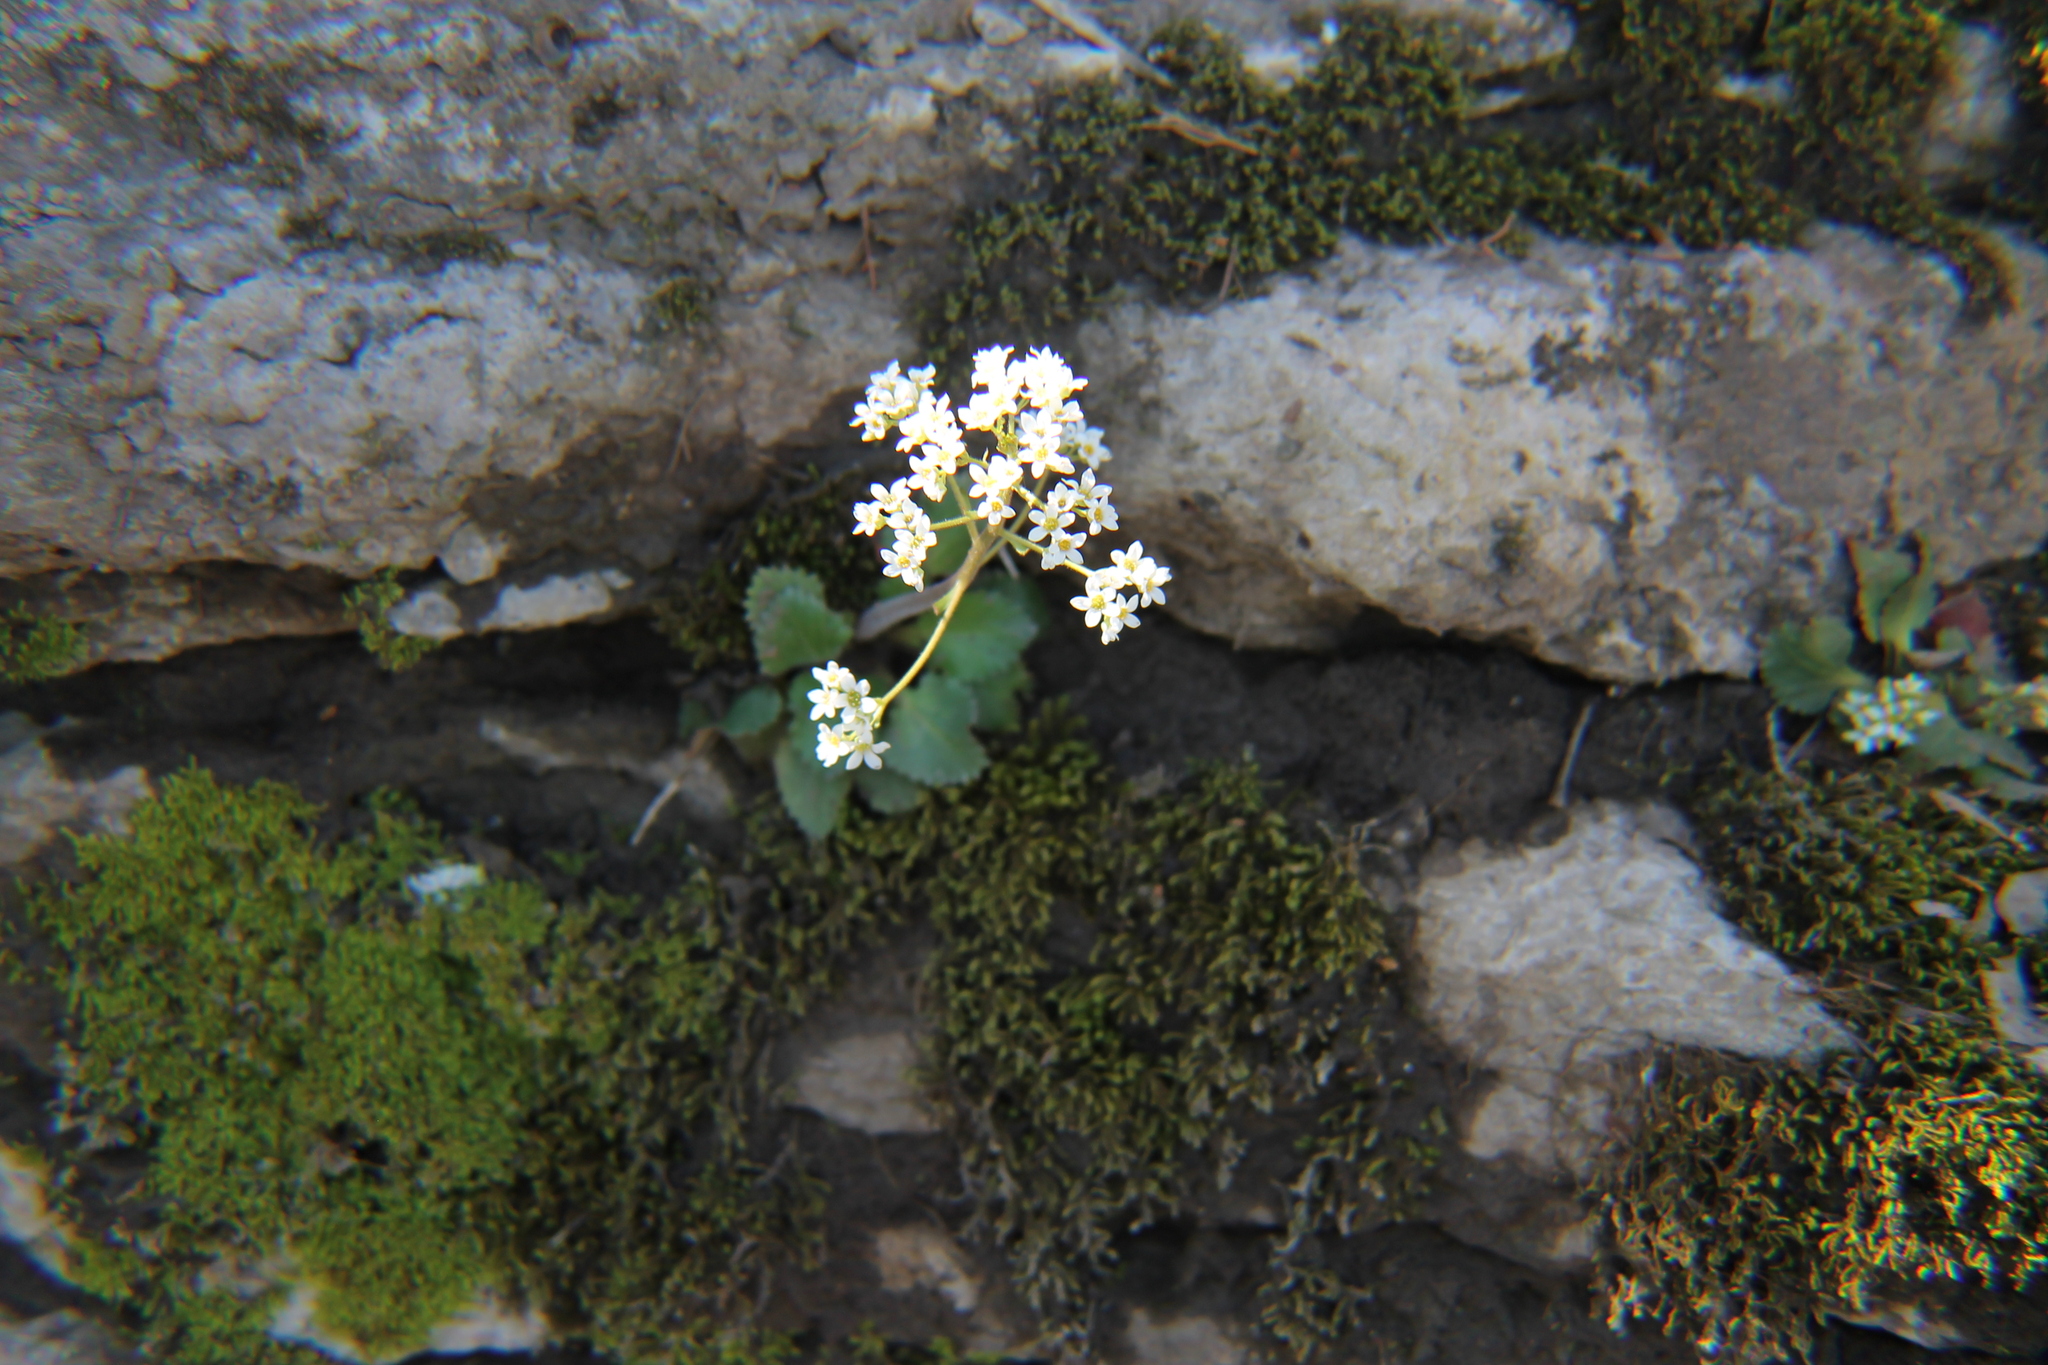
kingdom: Plantae
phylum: Tracheophyta
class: Magnoliopsida
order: Saxifragales
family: Saxifragaceae
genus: Micranthes
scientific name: Micranthes virginiensis
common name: Early saxifrage
